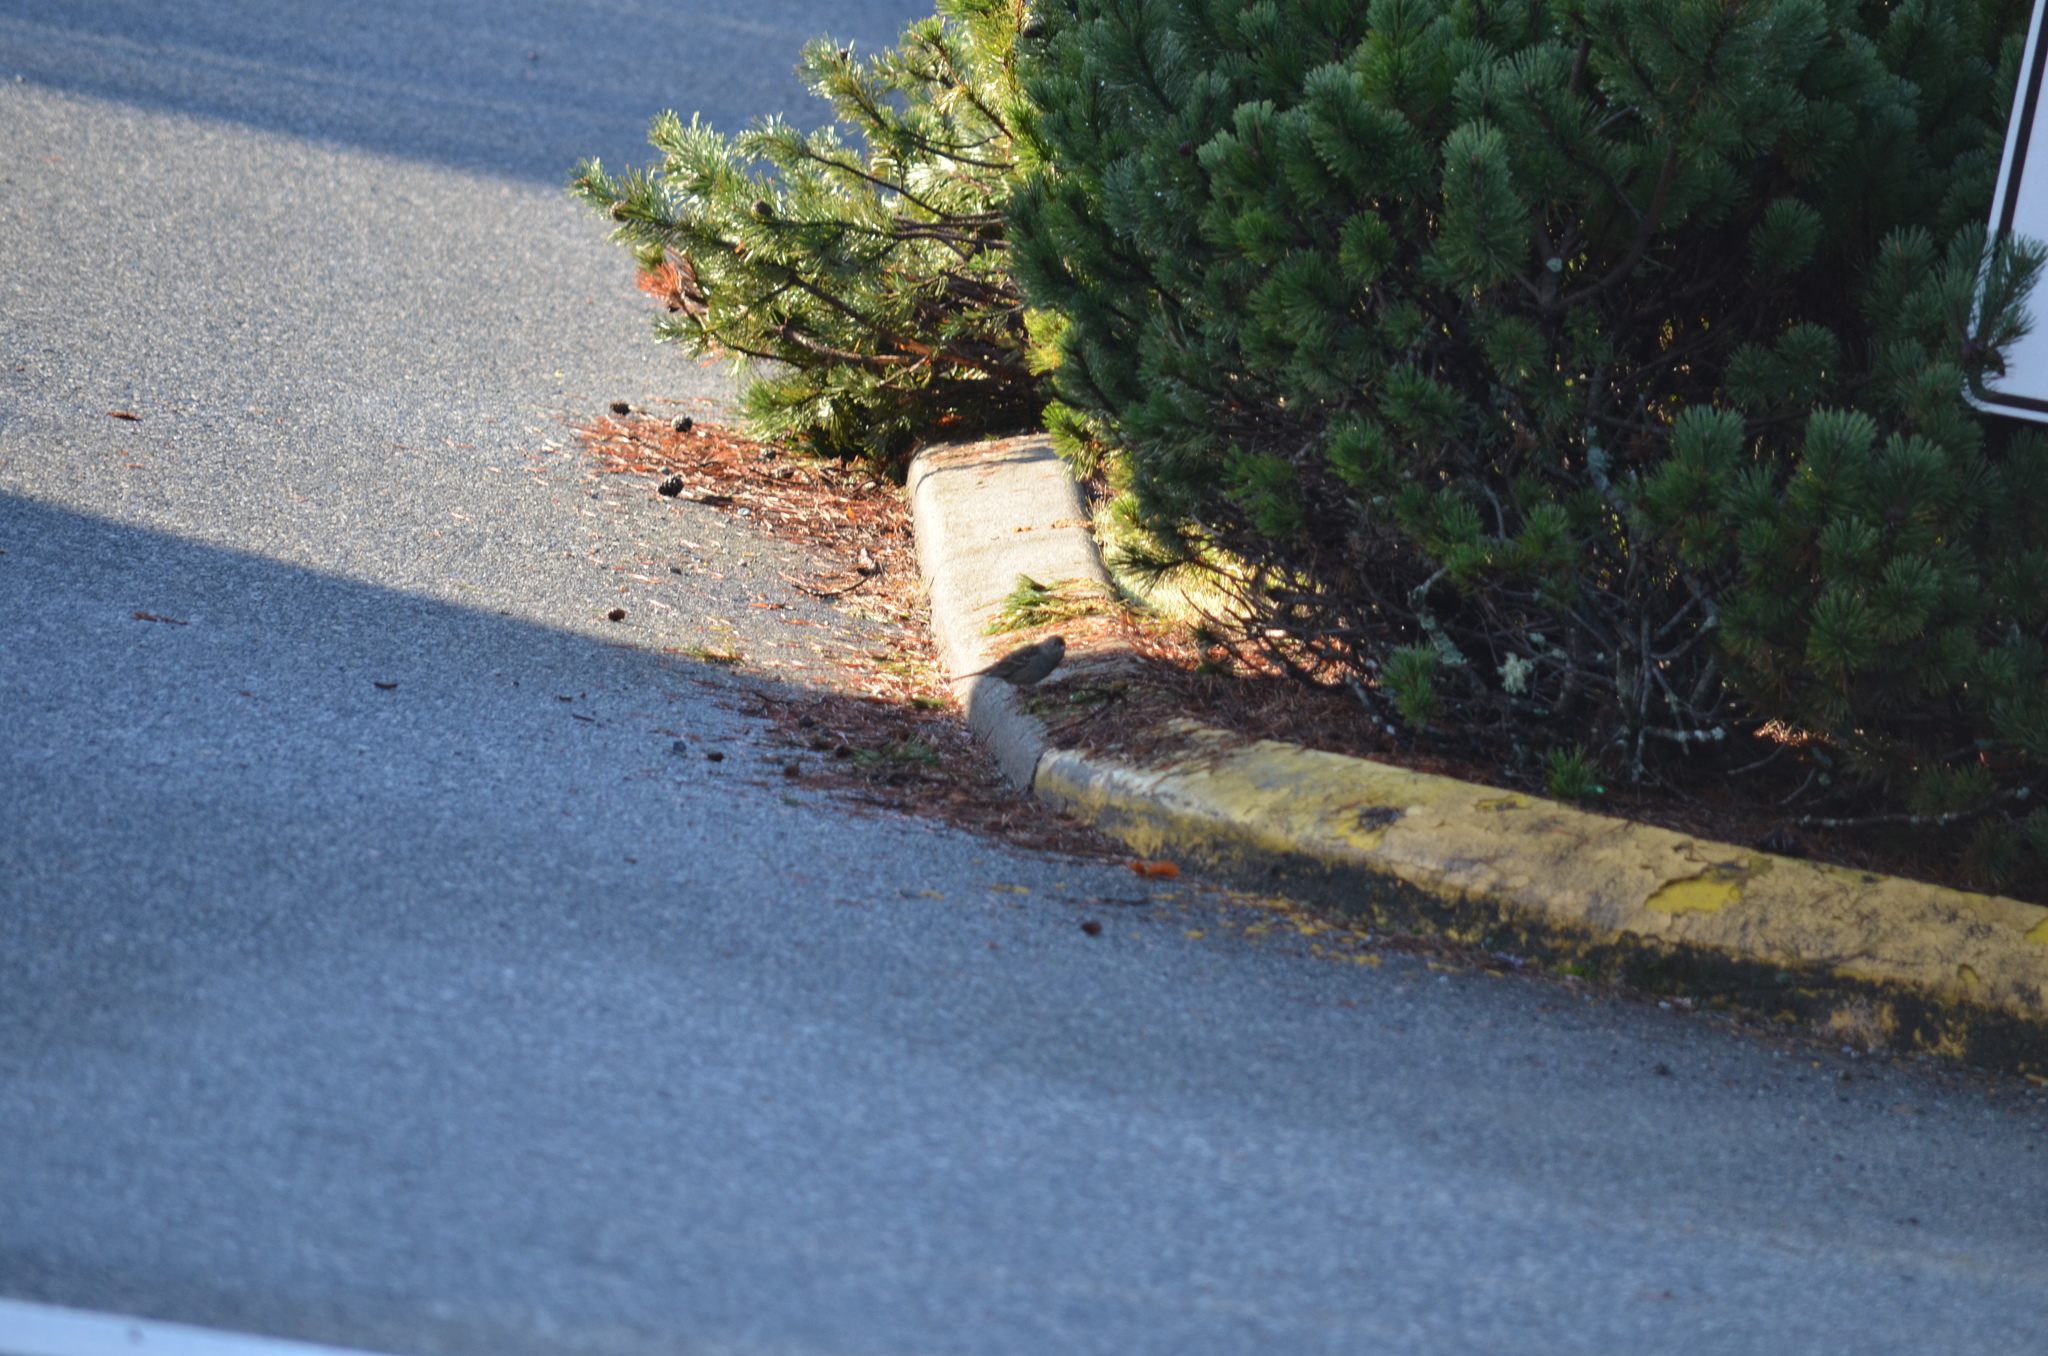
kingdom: Animalia
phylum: Chordata
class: Aves
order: Passeriformes
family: Passerellidae
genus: Zonotrichia
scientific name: Zonotrichia atricapilla
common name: Golden-crowned sparrow
